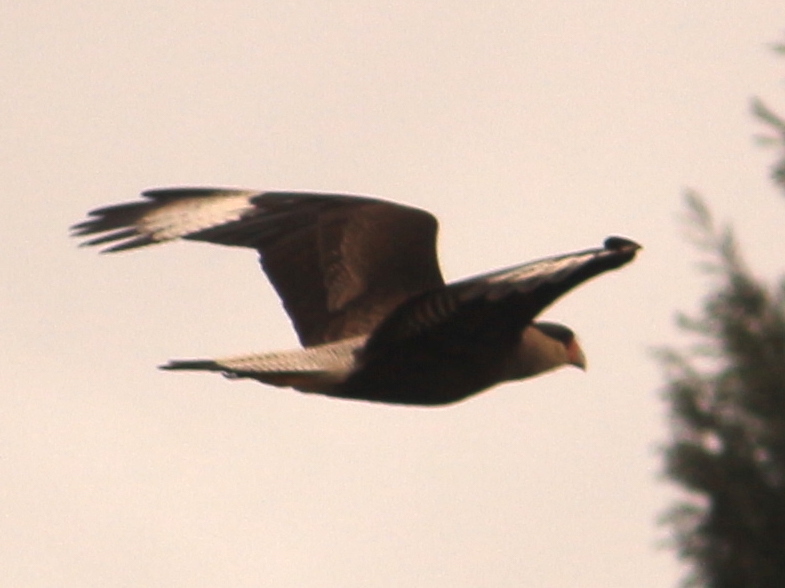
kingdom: Animalia
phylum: Chordata
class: Aves
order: Falconiformes
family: Falconidae
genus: Caracara
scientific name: Caracara plancus
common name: Southern caracara
